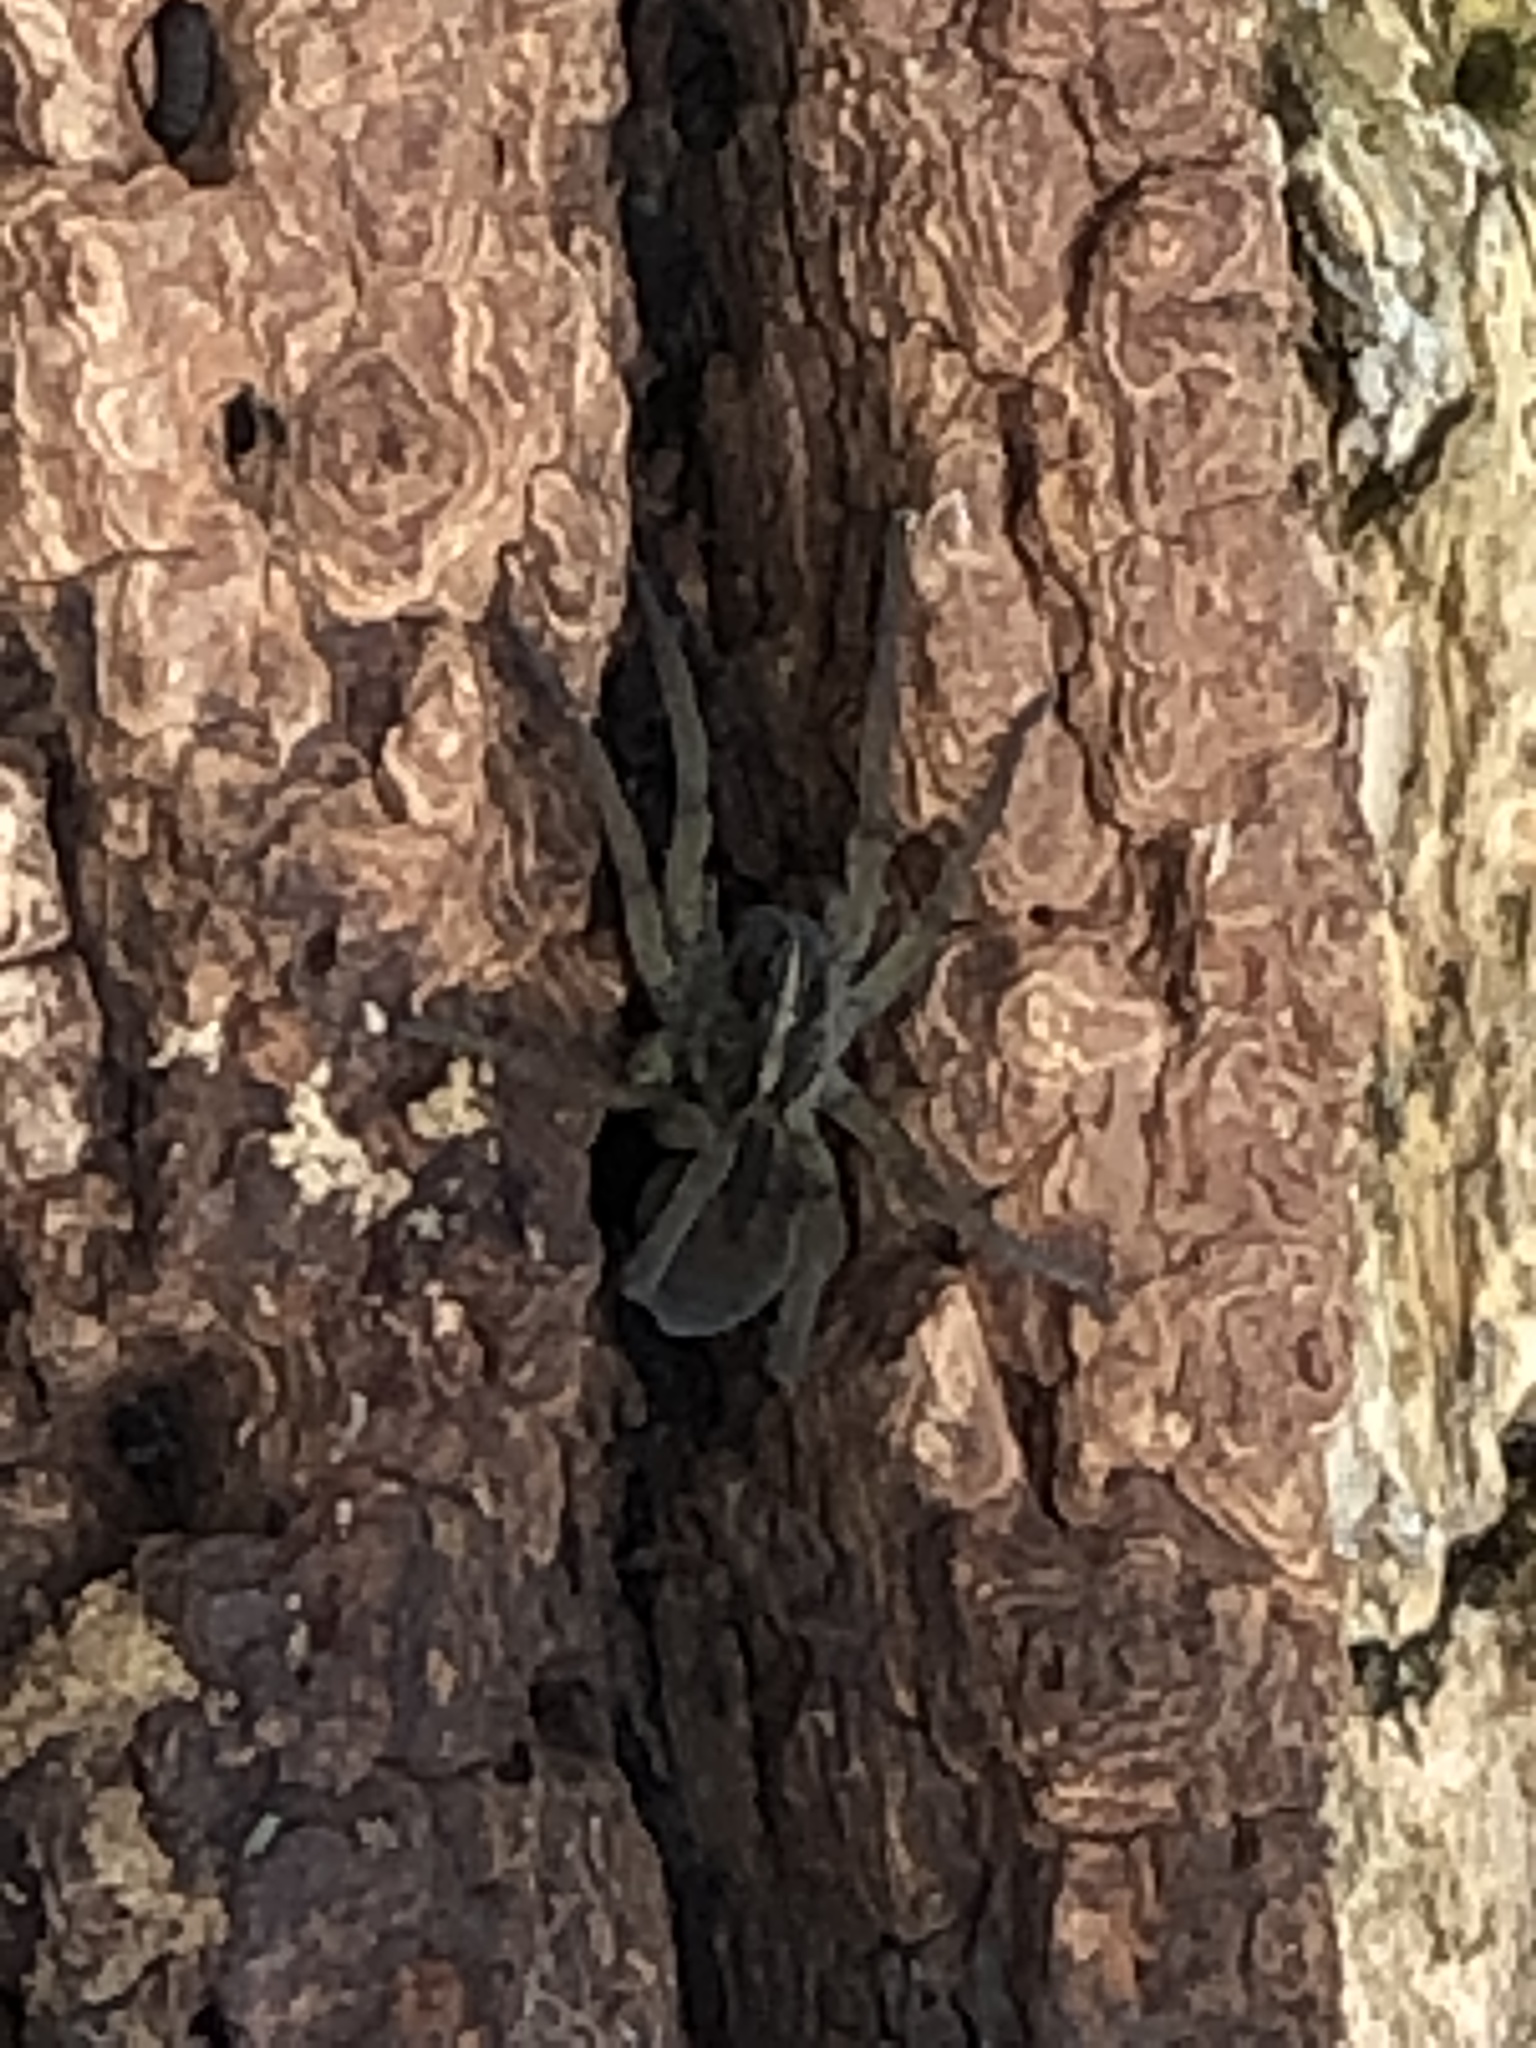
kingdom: Animalia
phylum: Arthropoda
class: Arachnida
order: Araneae
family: Lycosidae
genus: Tigrosa
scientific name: Tigrosa helluo
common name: Wetland giant wolf spider
